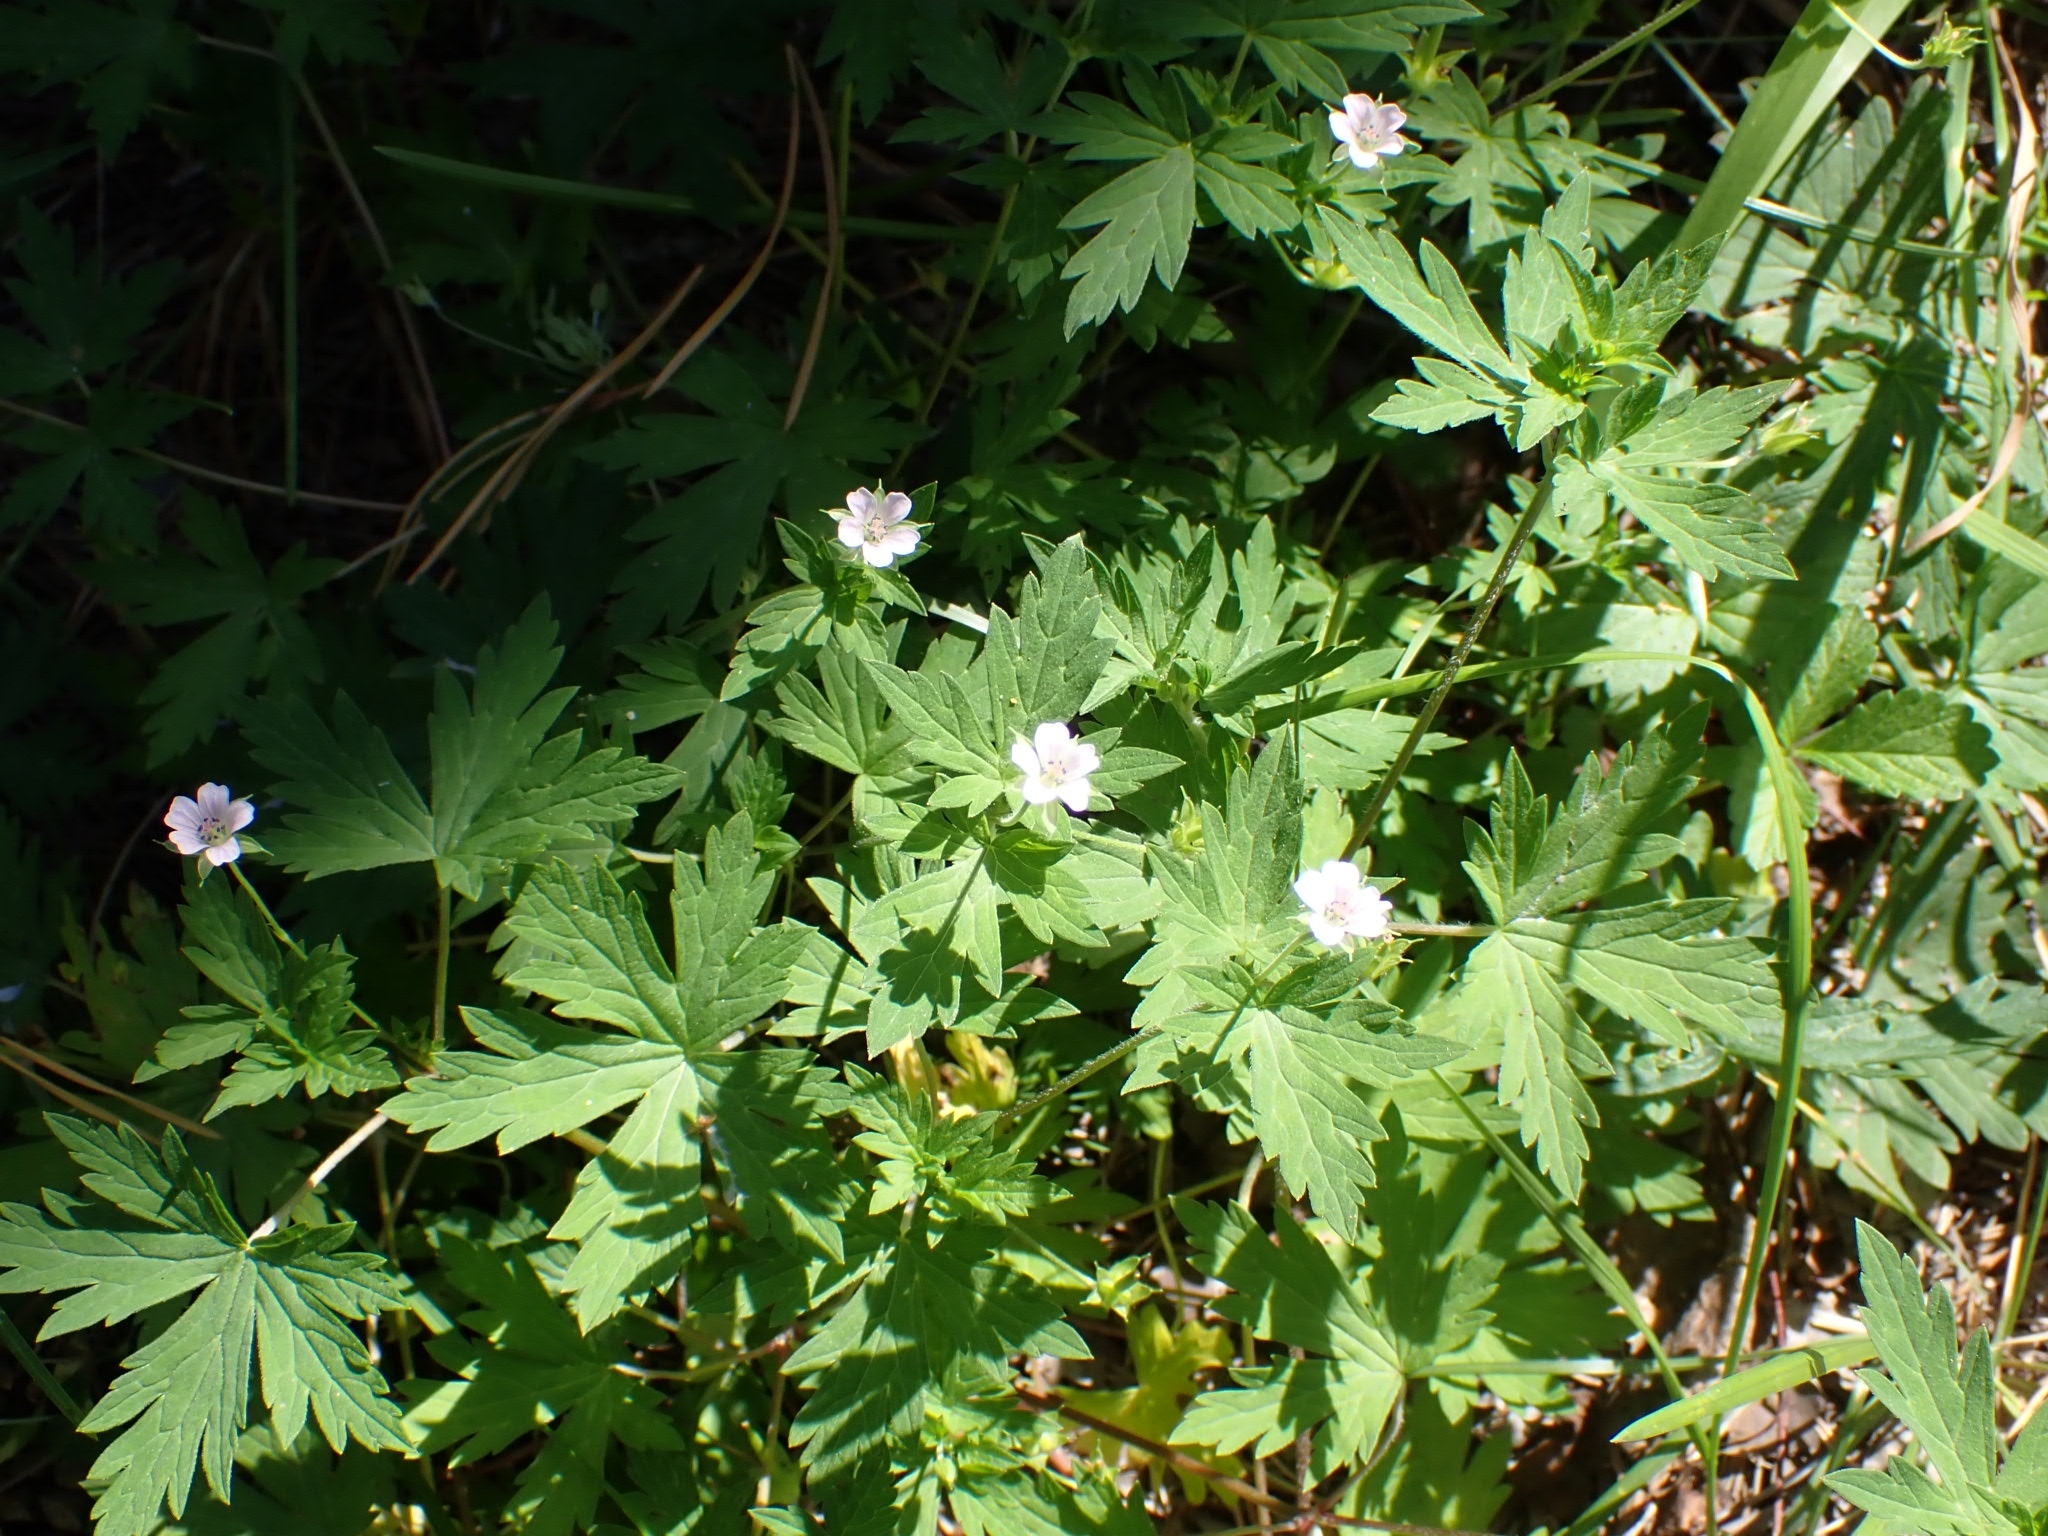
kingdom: Plantae
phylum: Tracheophyta
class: Magnoliopsida
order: Geraniales
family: Geraniaceae
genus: Geranium
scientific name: Geranium pseudosibiricum
